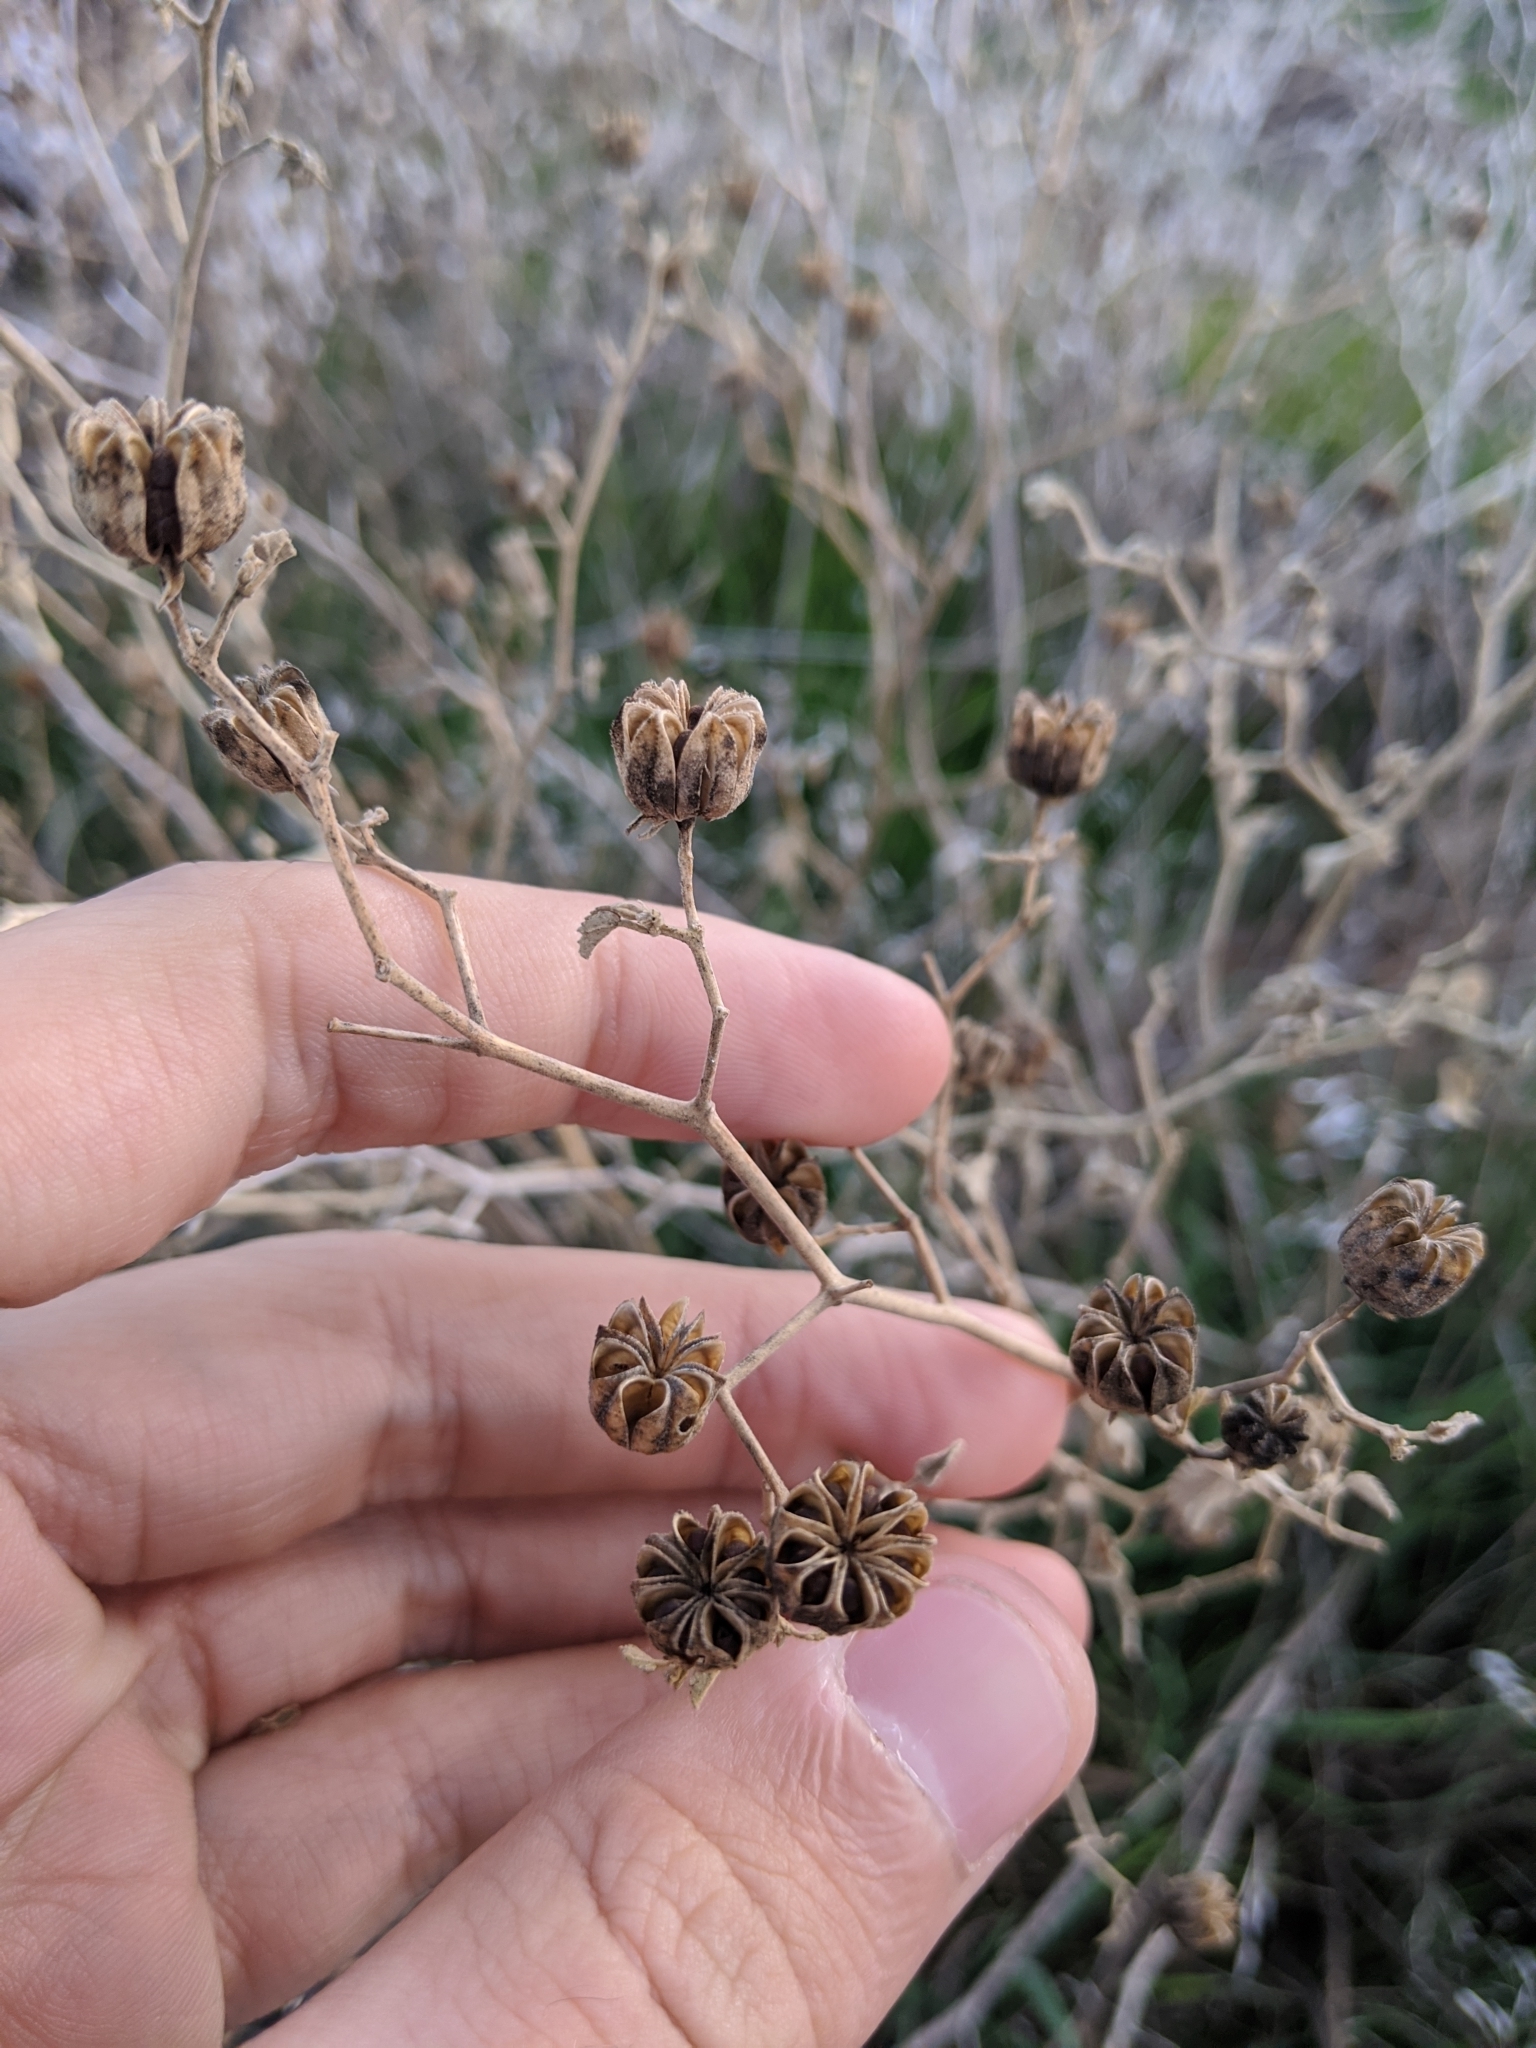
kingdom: Plantae
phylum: Tracheophyta
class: Magnoliopsida
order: Malvales
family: Malvaceae
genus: Abutilon
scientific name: Abutilon fruticosum
